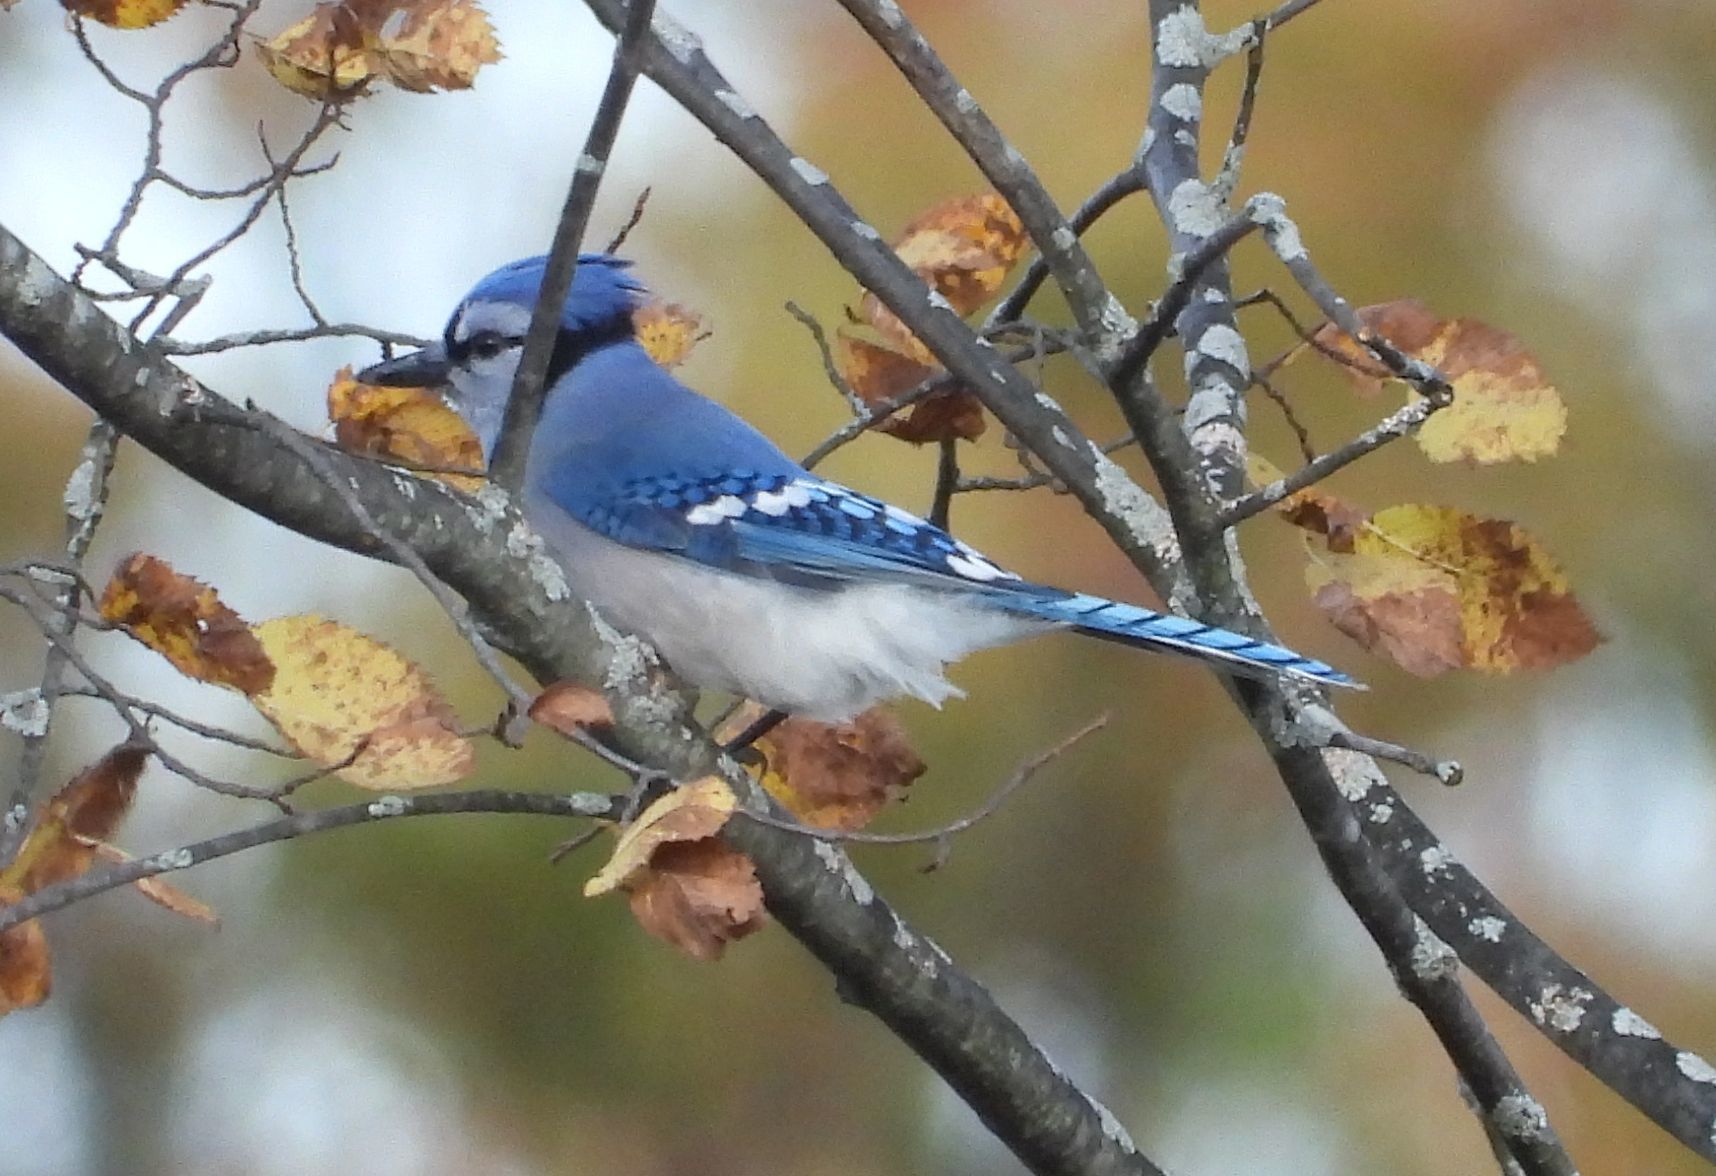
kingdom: Animalia
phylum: Chordata
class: Aves
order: Passeriformes
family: Corvidae
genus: Cyanocitta
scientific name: Cyanocitta cristata
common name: Blue jay
